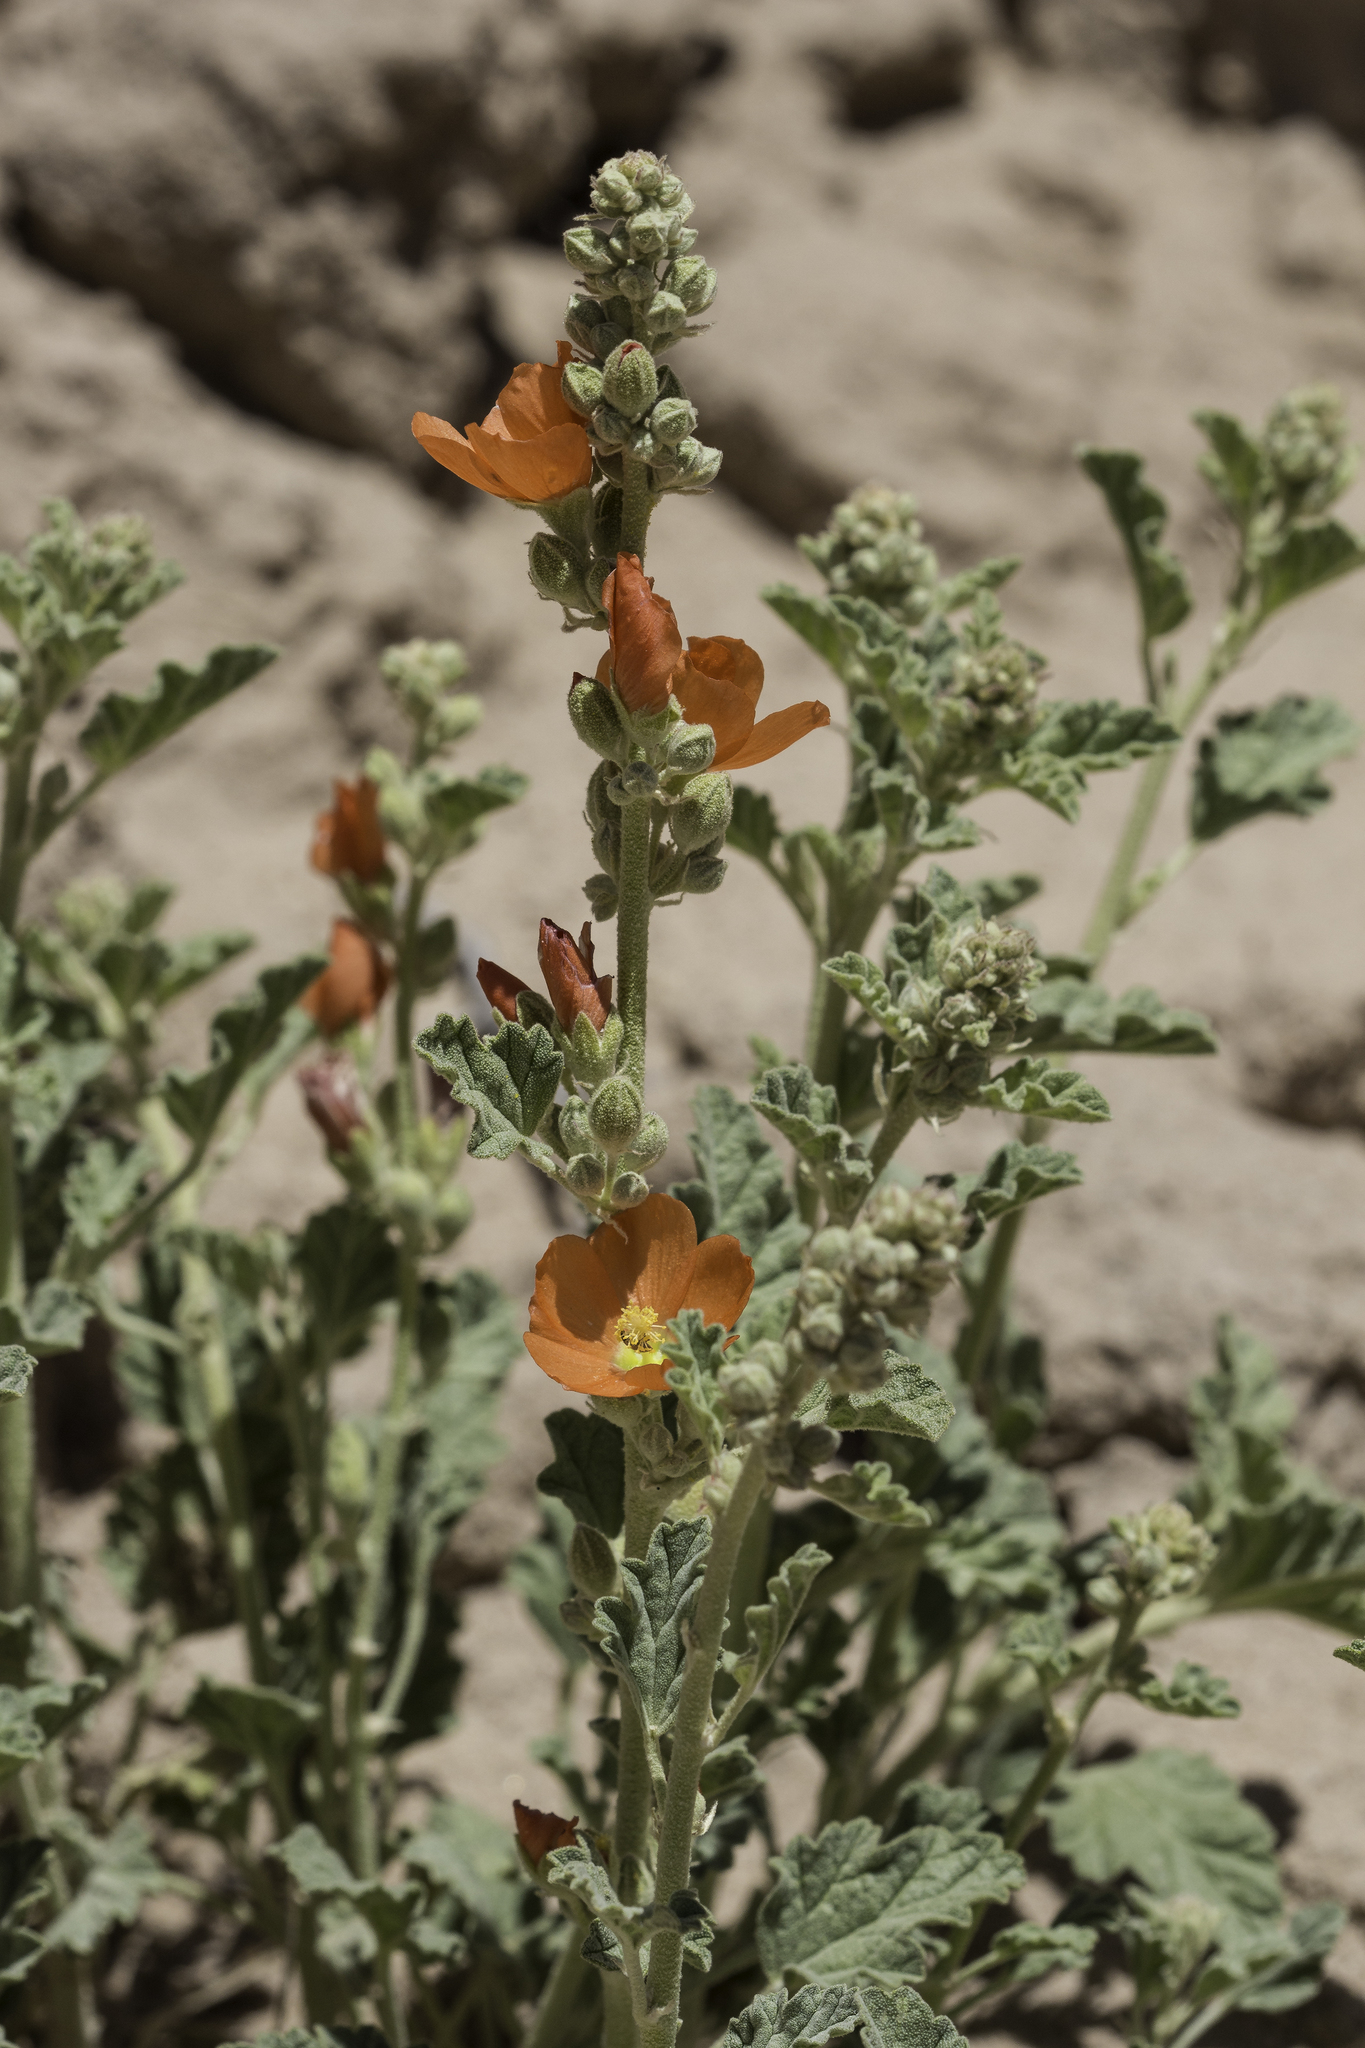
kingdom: Plantae
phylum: Tracheophyta
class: Magnoliopsida
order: Malvales
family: Malvaceae
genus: Sphaeralcea
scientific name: Sphaeralcea parvifolia
